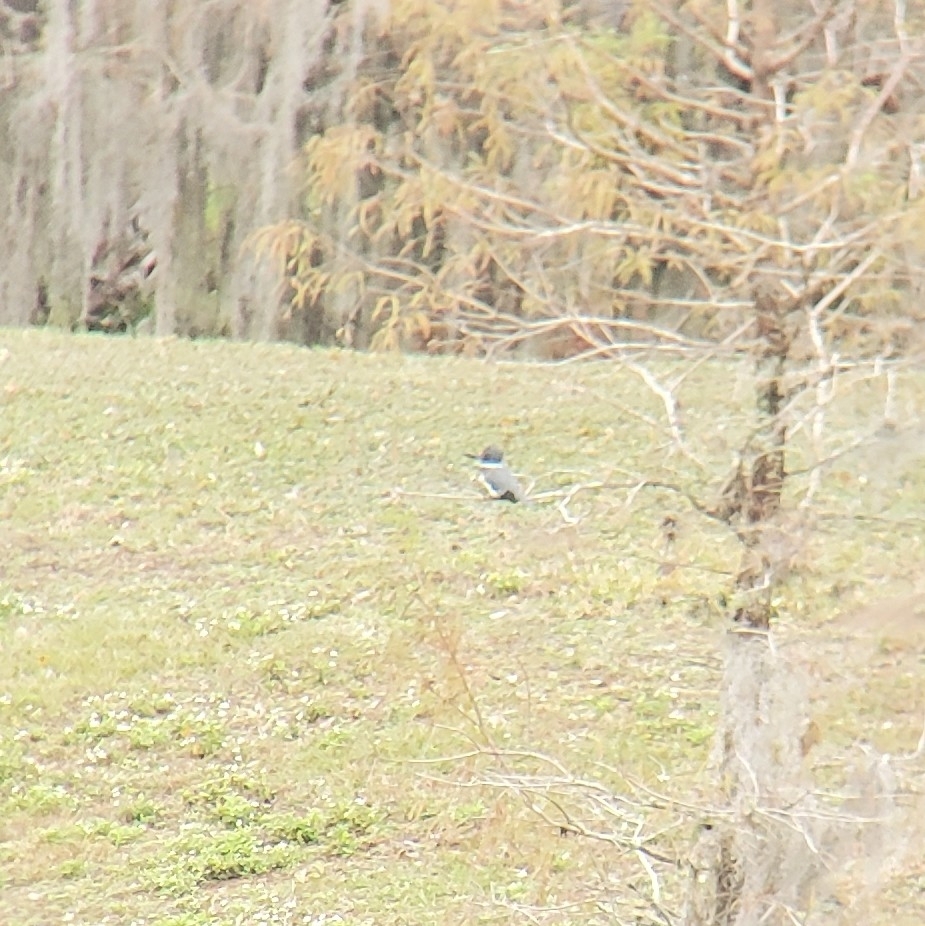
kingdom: Animalia
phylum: Chordata
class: Aves
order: Coraciiformes
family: Alcedinidae
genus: Megaceryle
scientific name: Megaceryle alcyon
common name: Belted kingfisher
